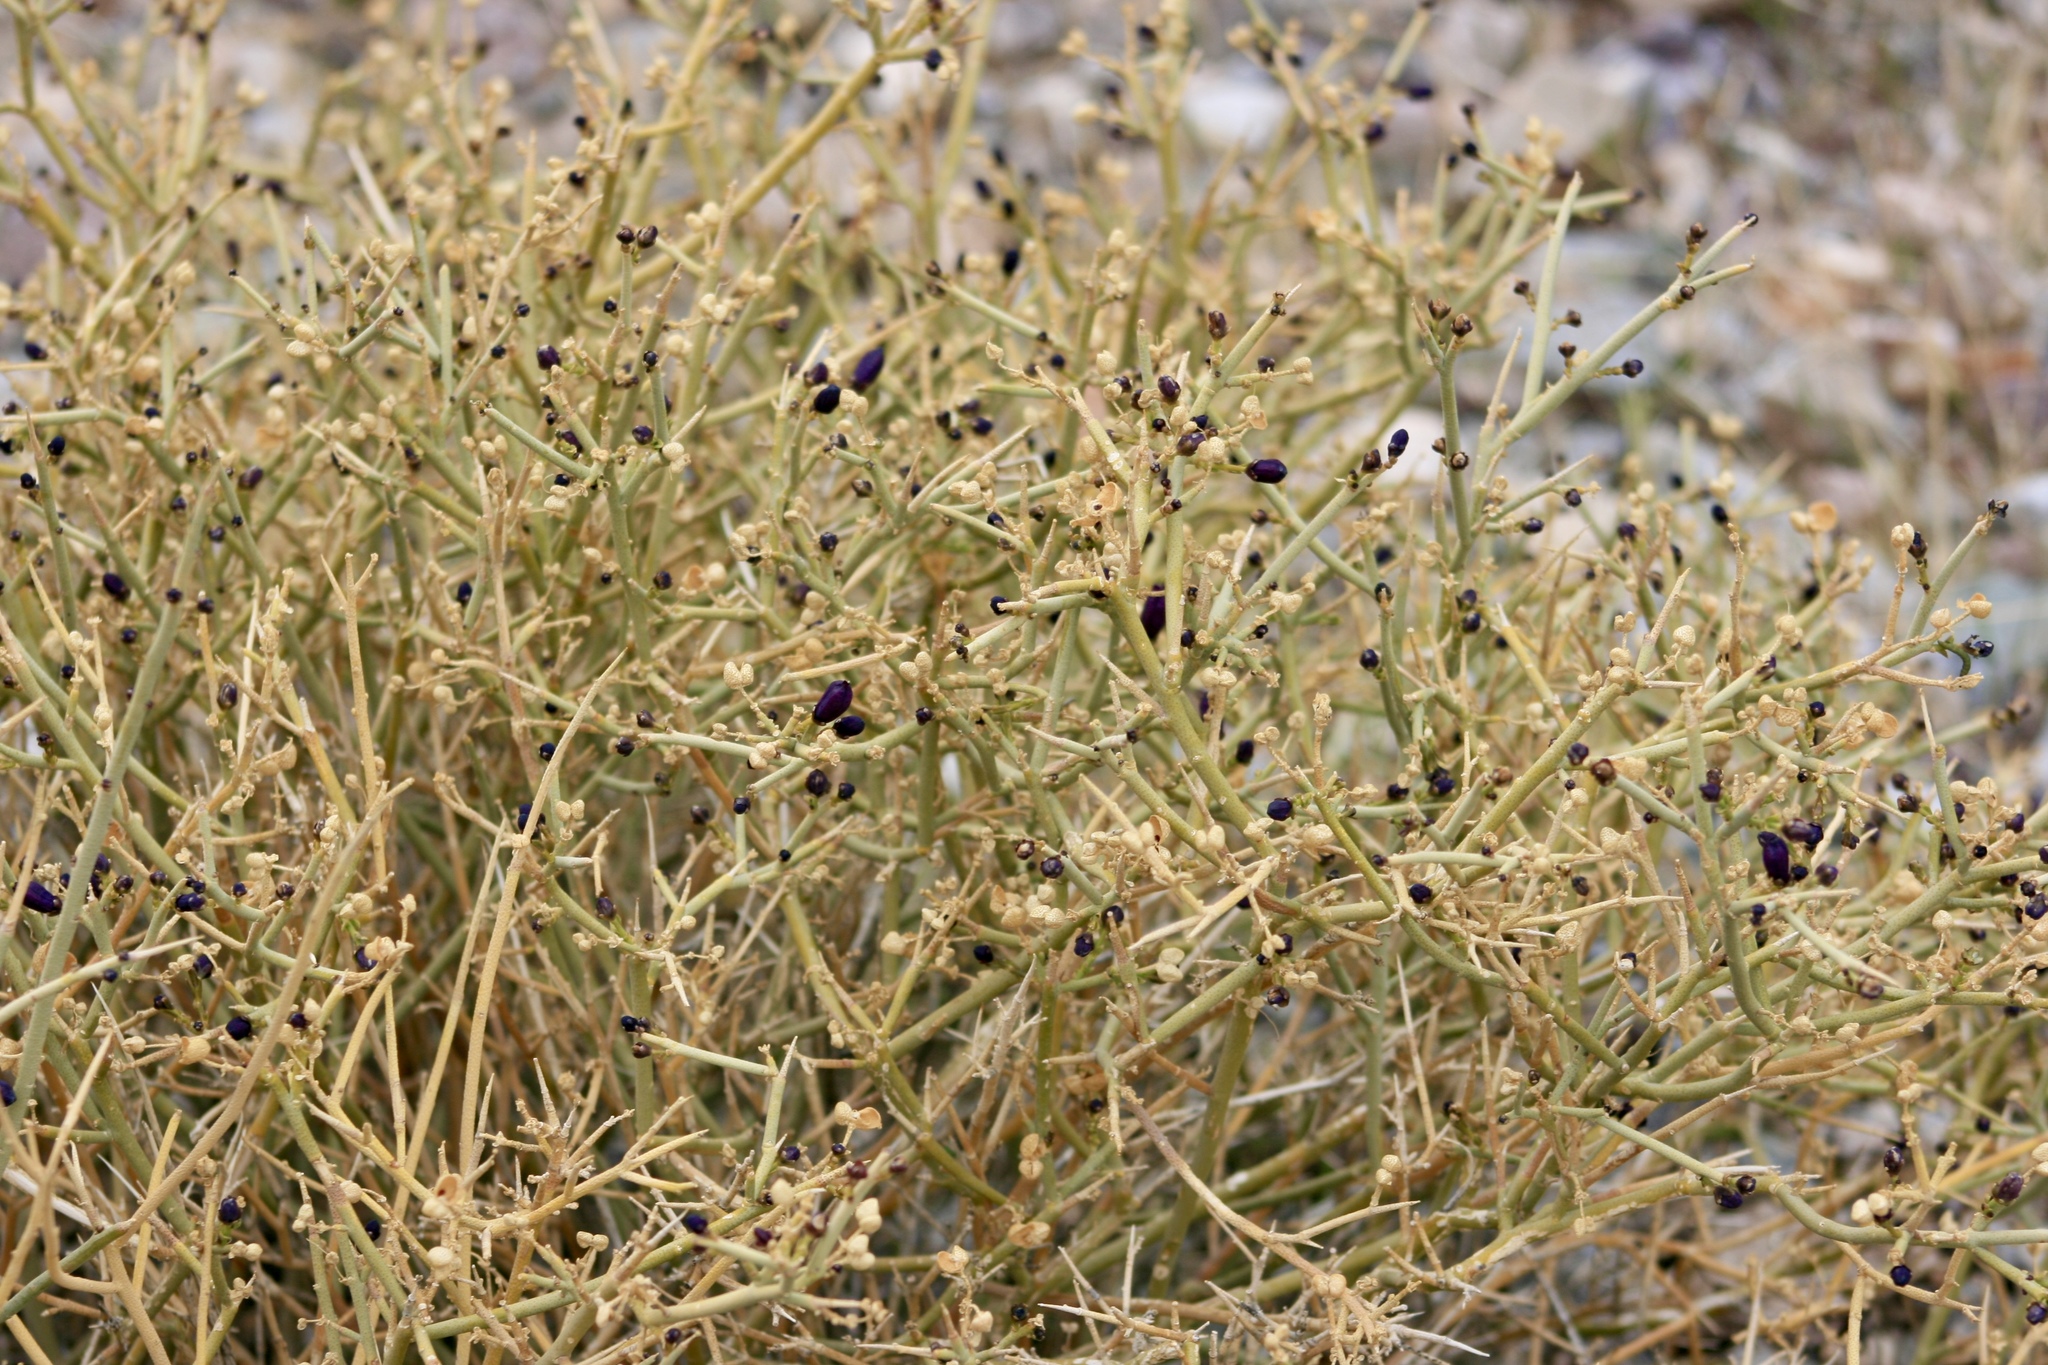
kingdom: Plantae
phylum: Tracheophyta
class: Magnoliopsida
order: Sapindales
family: Rutaceae
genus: Thamnosma
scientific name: Thamnosma montana
